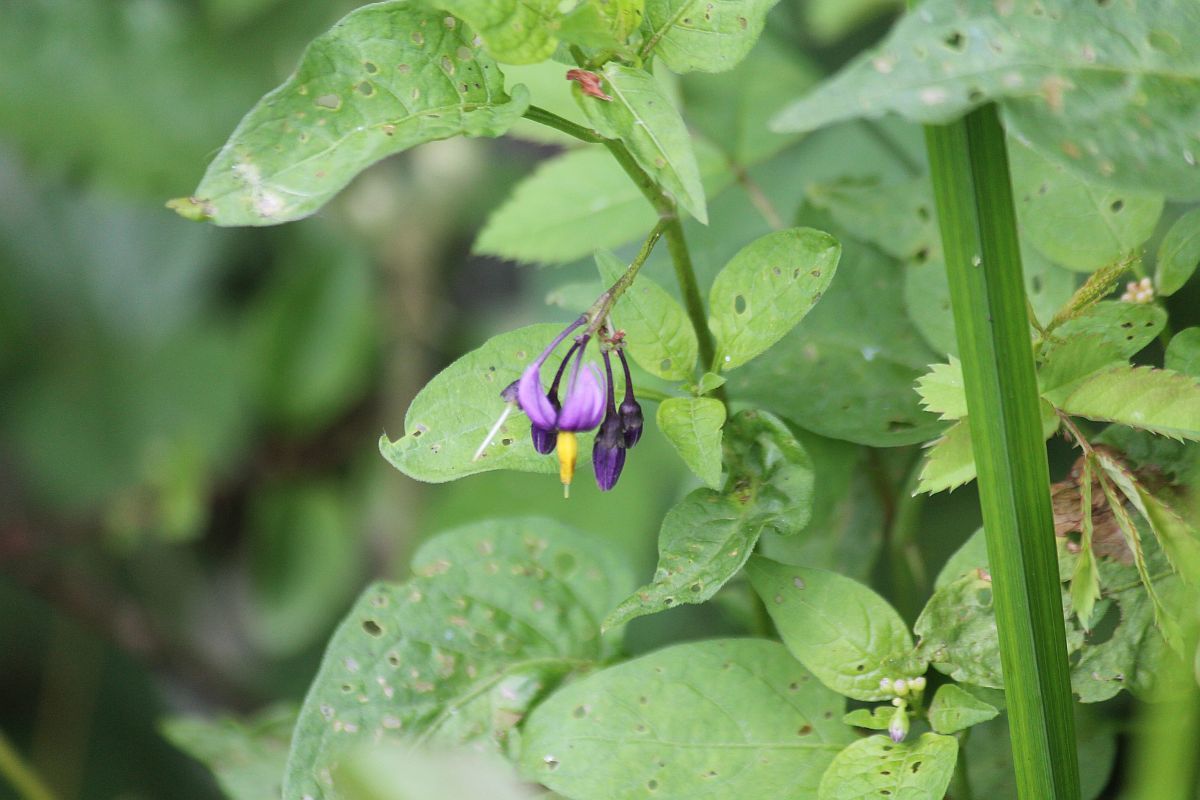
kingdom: Plantae
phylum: Tracheophyta
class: Magnoliopsida
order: Solanales
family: Solanaceae
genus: Solanum
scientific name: Solanum dulcamara
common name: Climbing nightshade
